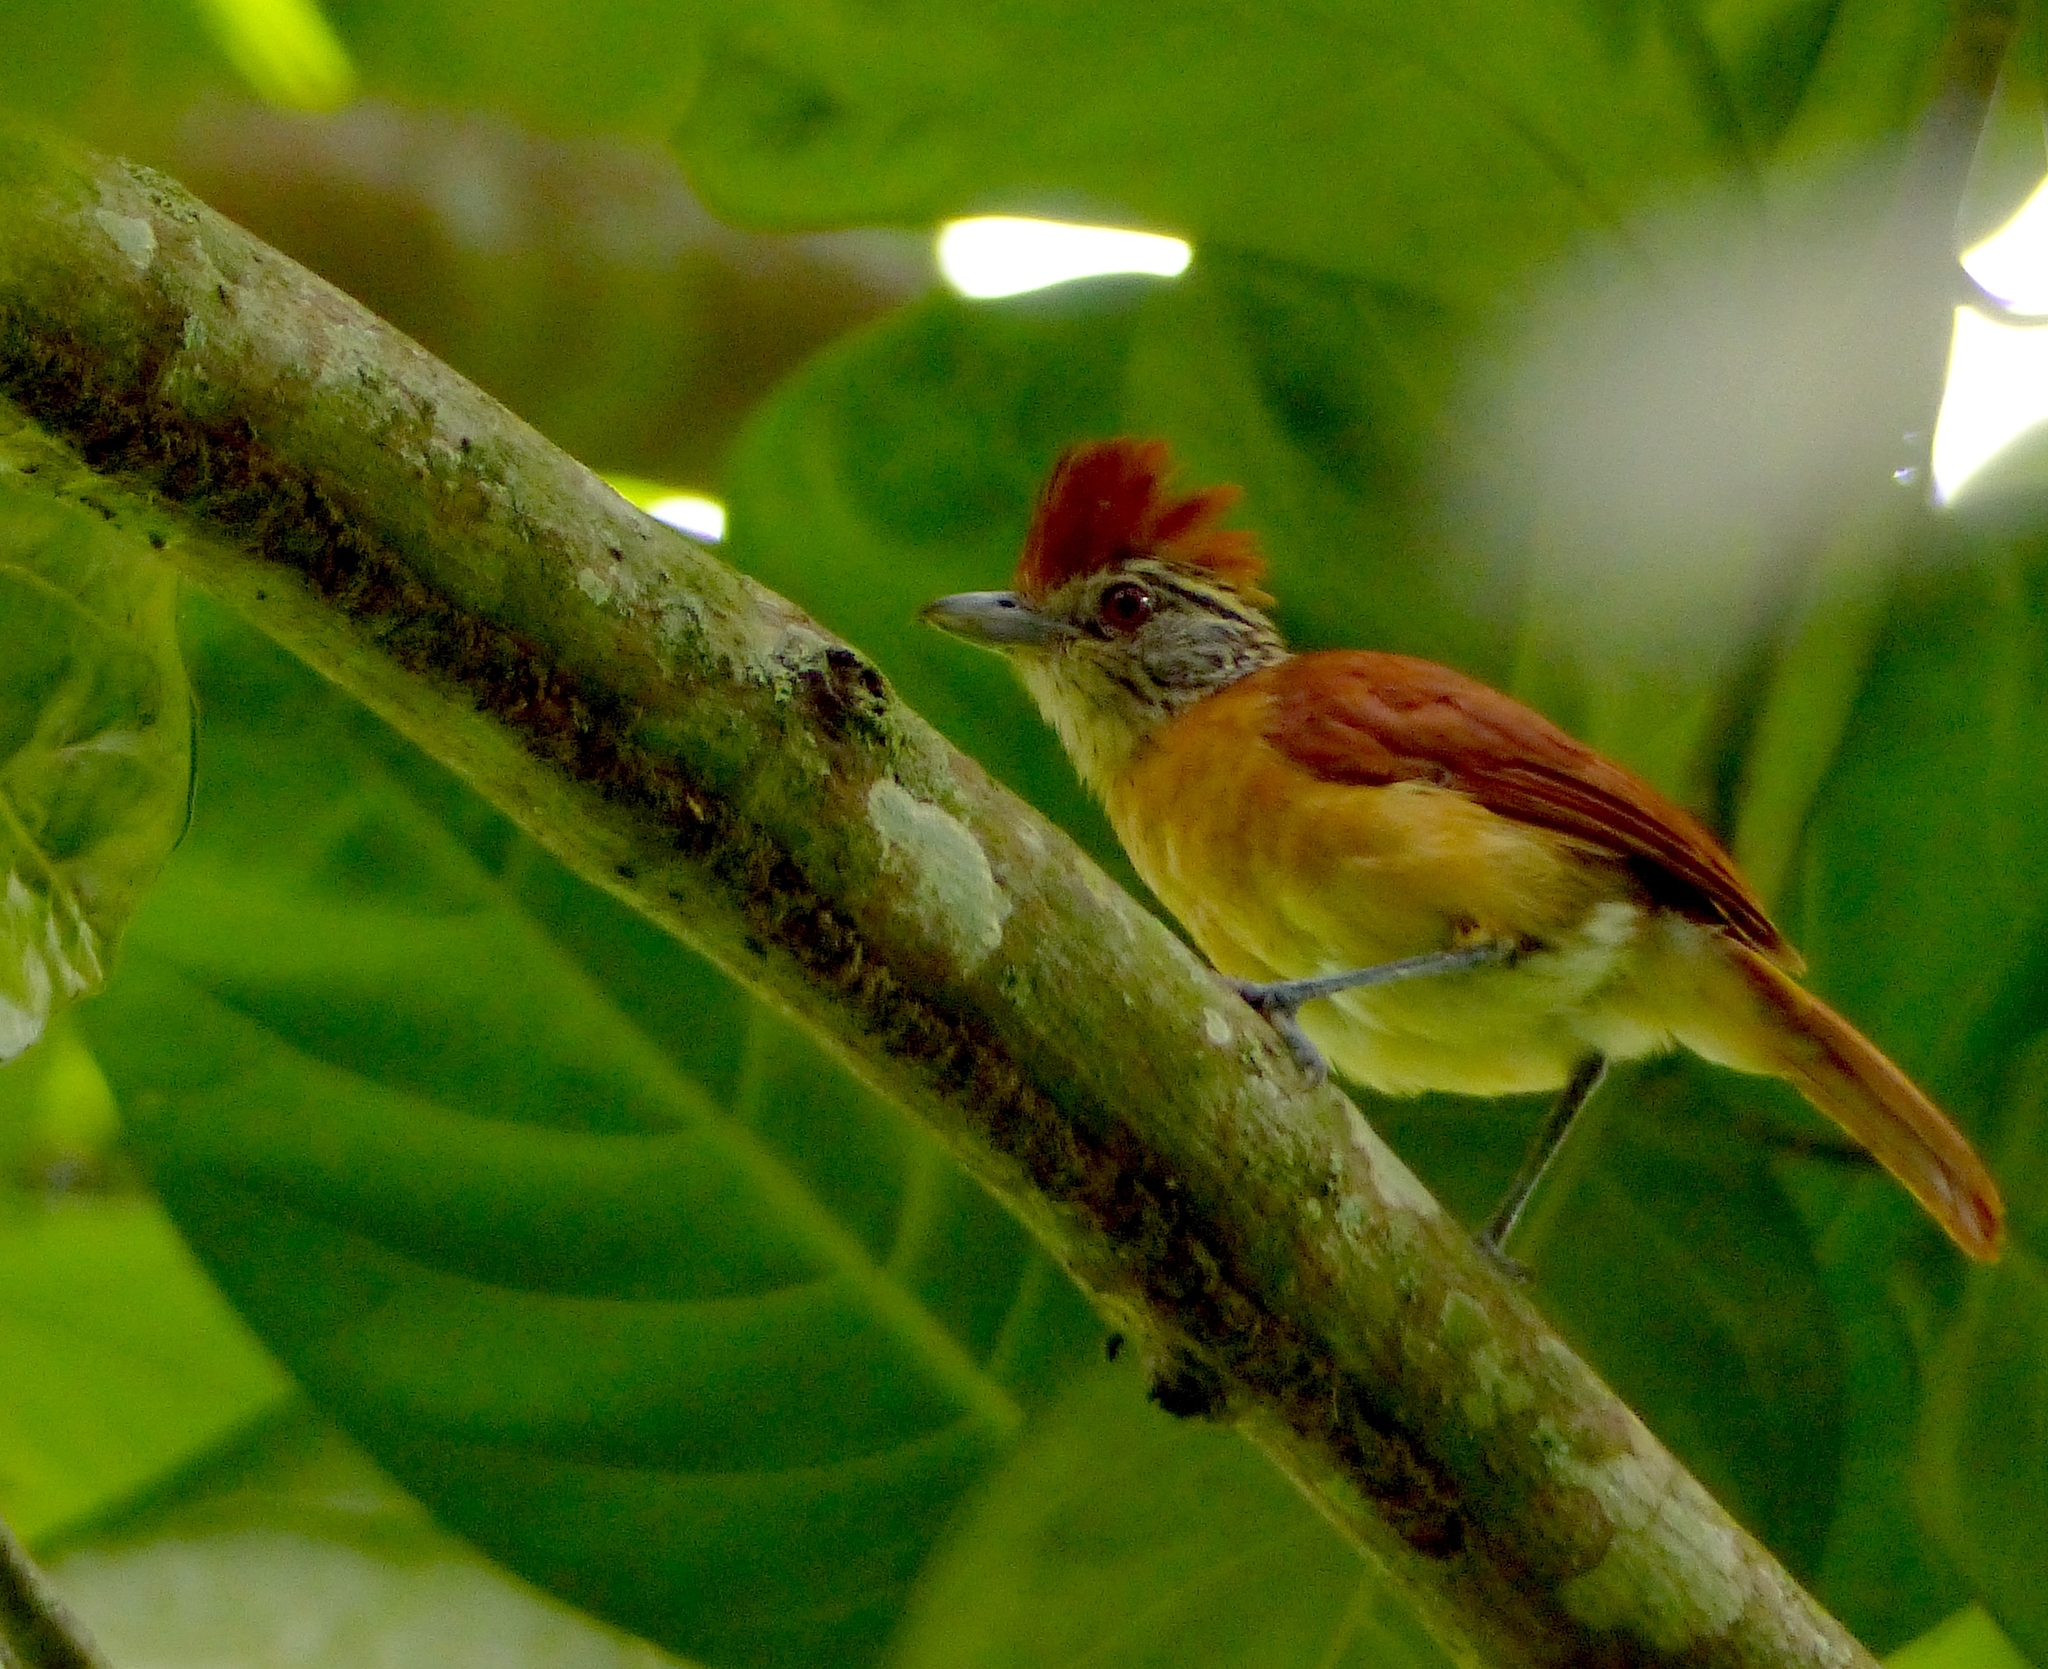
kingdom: Animalia
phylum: Chordata
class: Aves
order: Passeriformes
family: Thamnophilidae
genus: Thamnophilus
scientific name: Thamnophilus doliatus
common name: Barred antshrike
